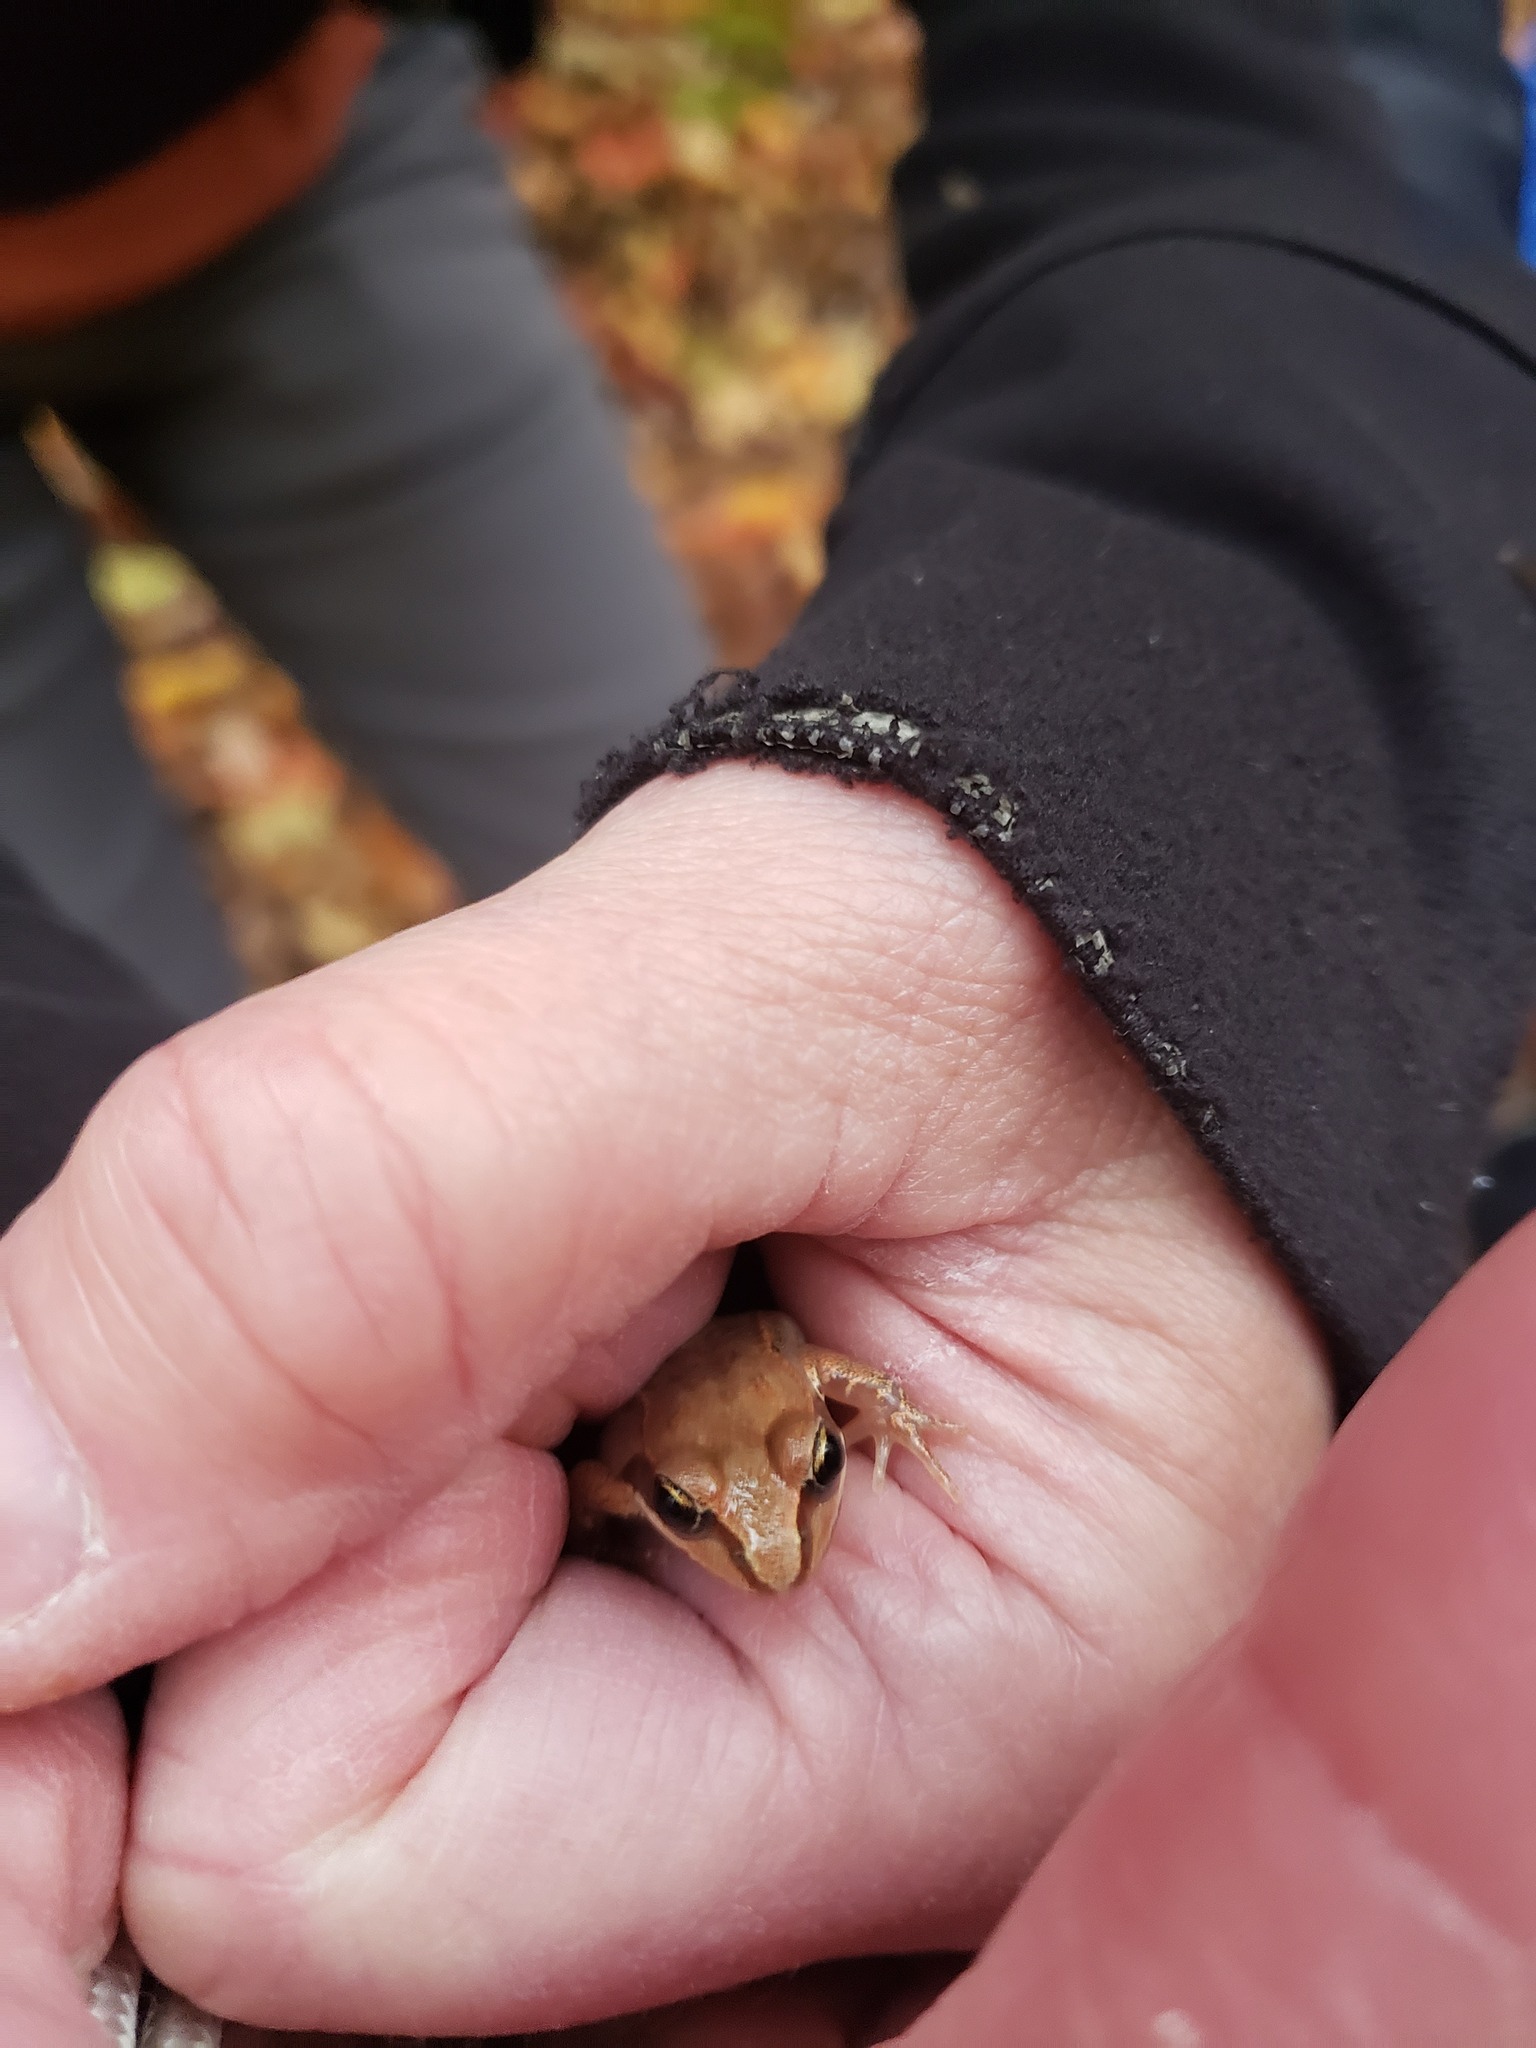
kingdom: Animalia
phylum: Chordata
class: Amphibia
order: Anura
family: Ranidae
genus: Lithobates
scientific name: Lithobates sylvaticus
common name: Wood frog
